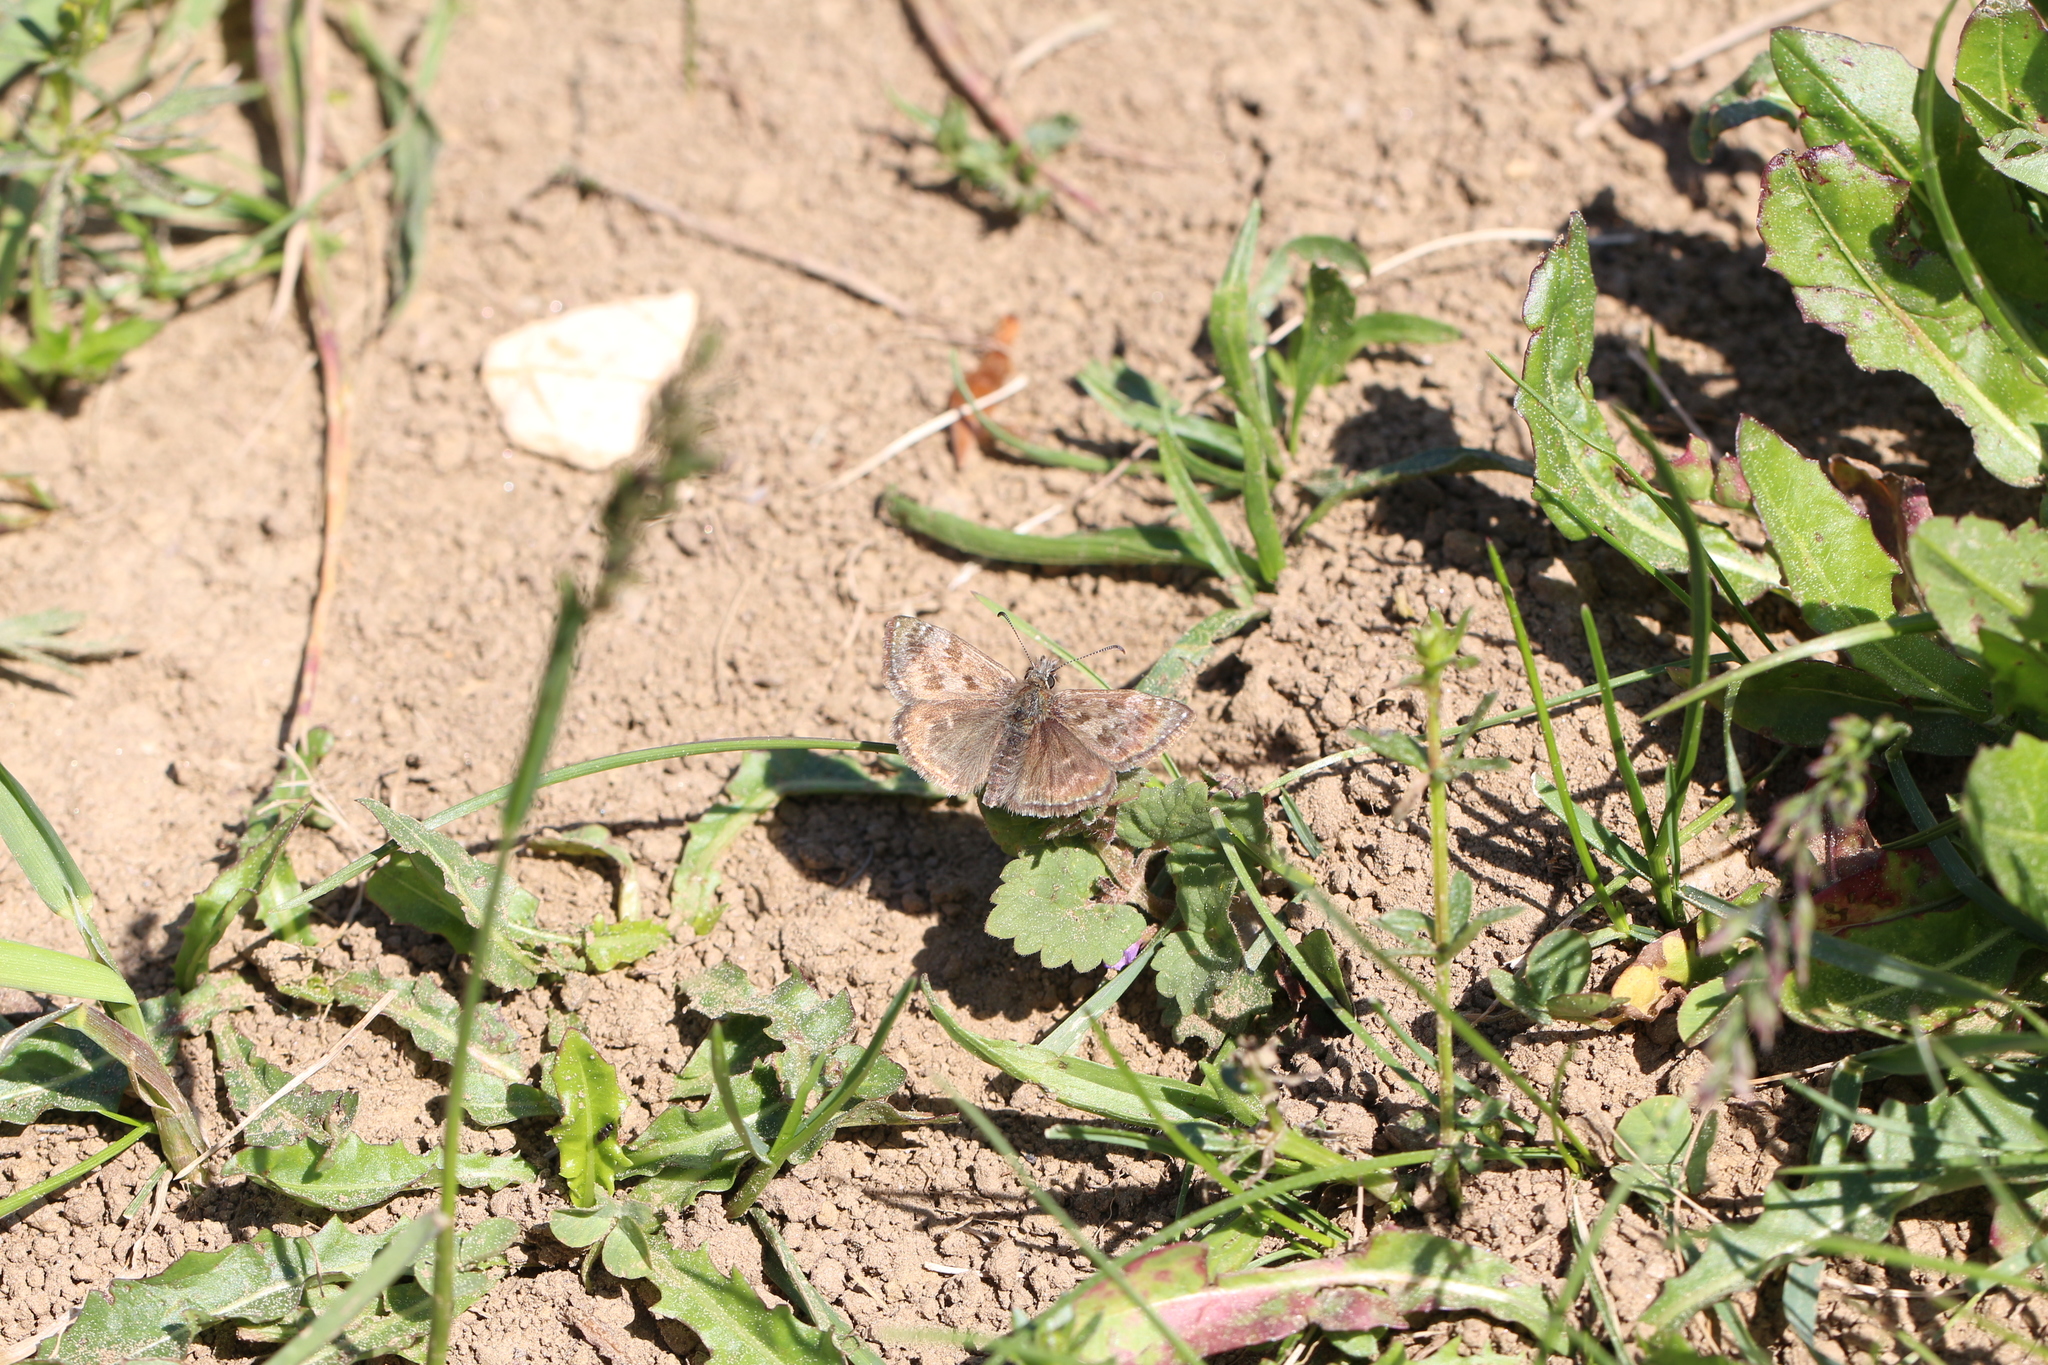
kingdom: Animalia
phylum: Arthropoda
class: Insecta
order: Lepidoptera
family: Hesperiidae
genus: Erynnis
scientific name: Erynnis tages
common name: Dingy skipper
